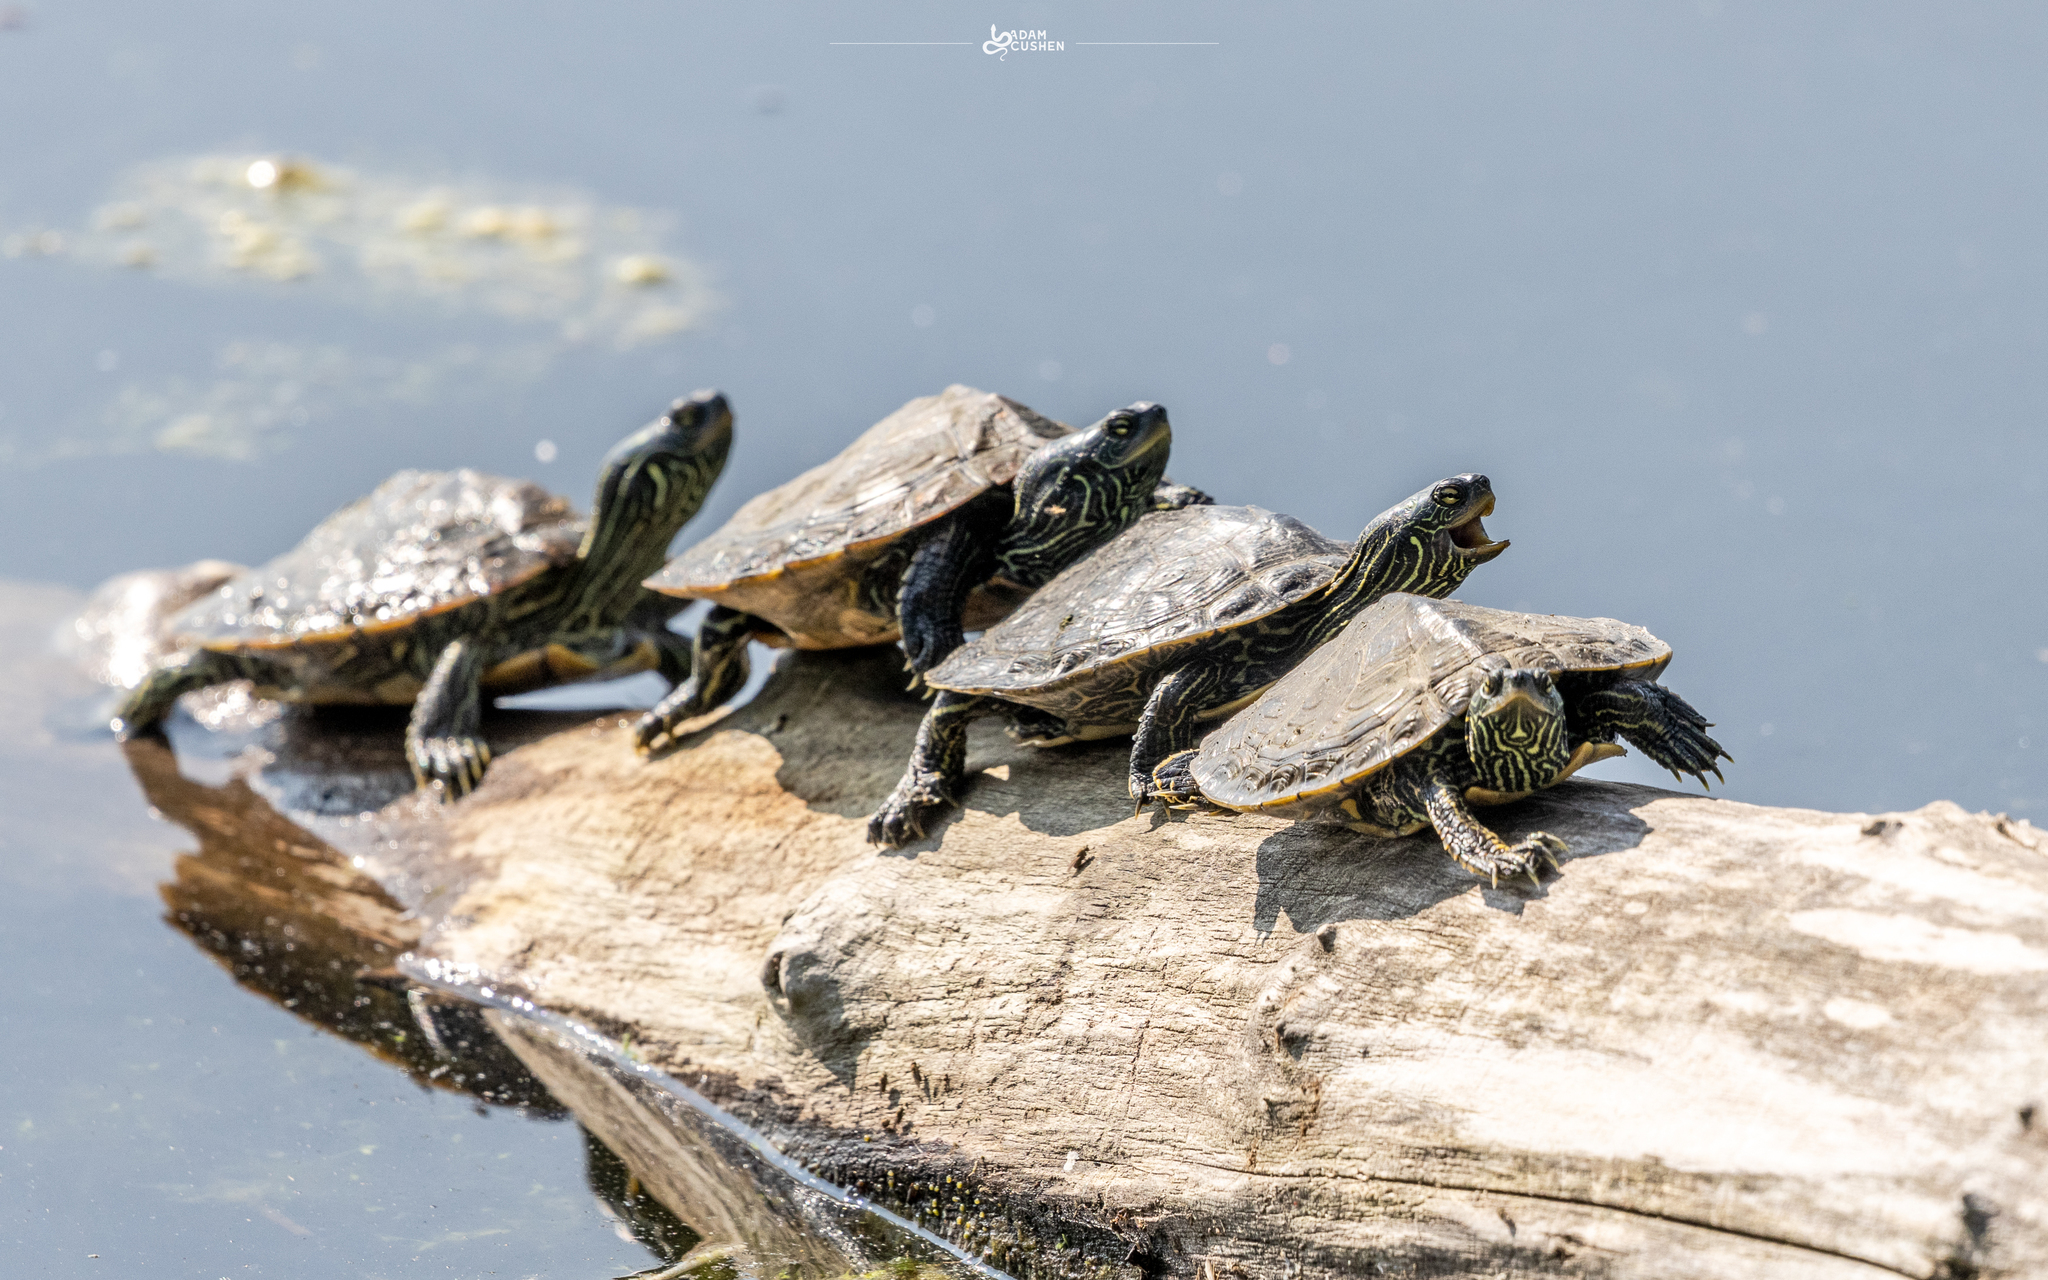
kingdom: Animalia
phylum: Chordata
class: Testudines
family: Emydidae
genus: Graptemys
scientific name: Graptemys geographica
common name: Common map turtle
